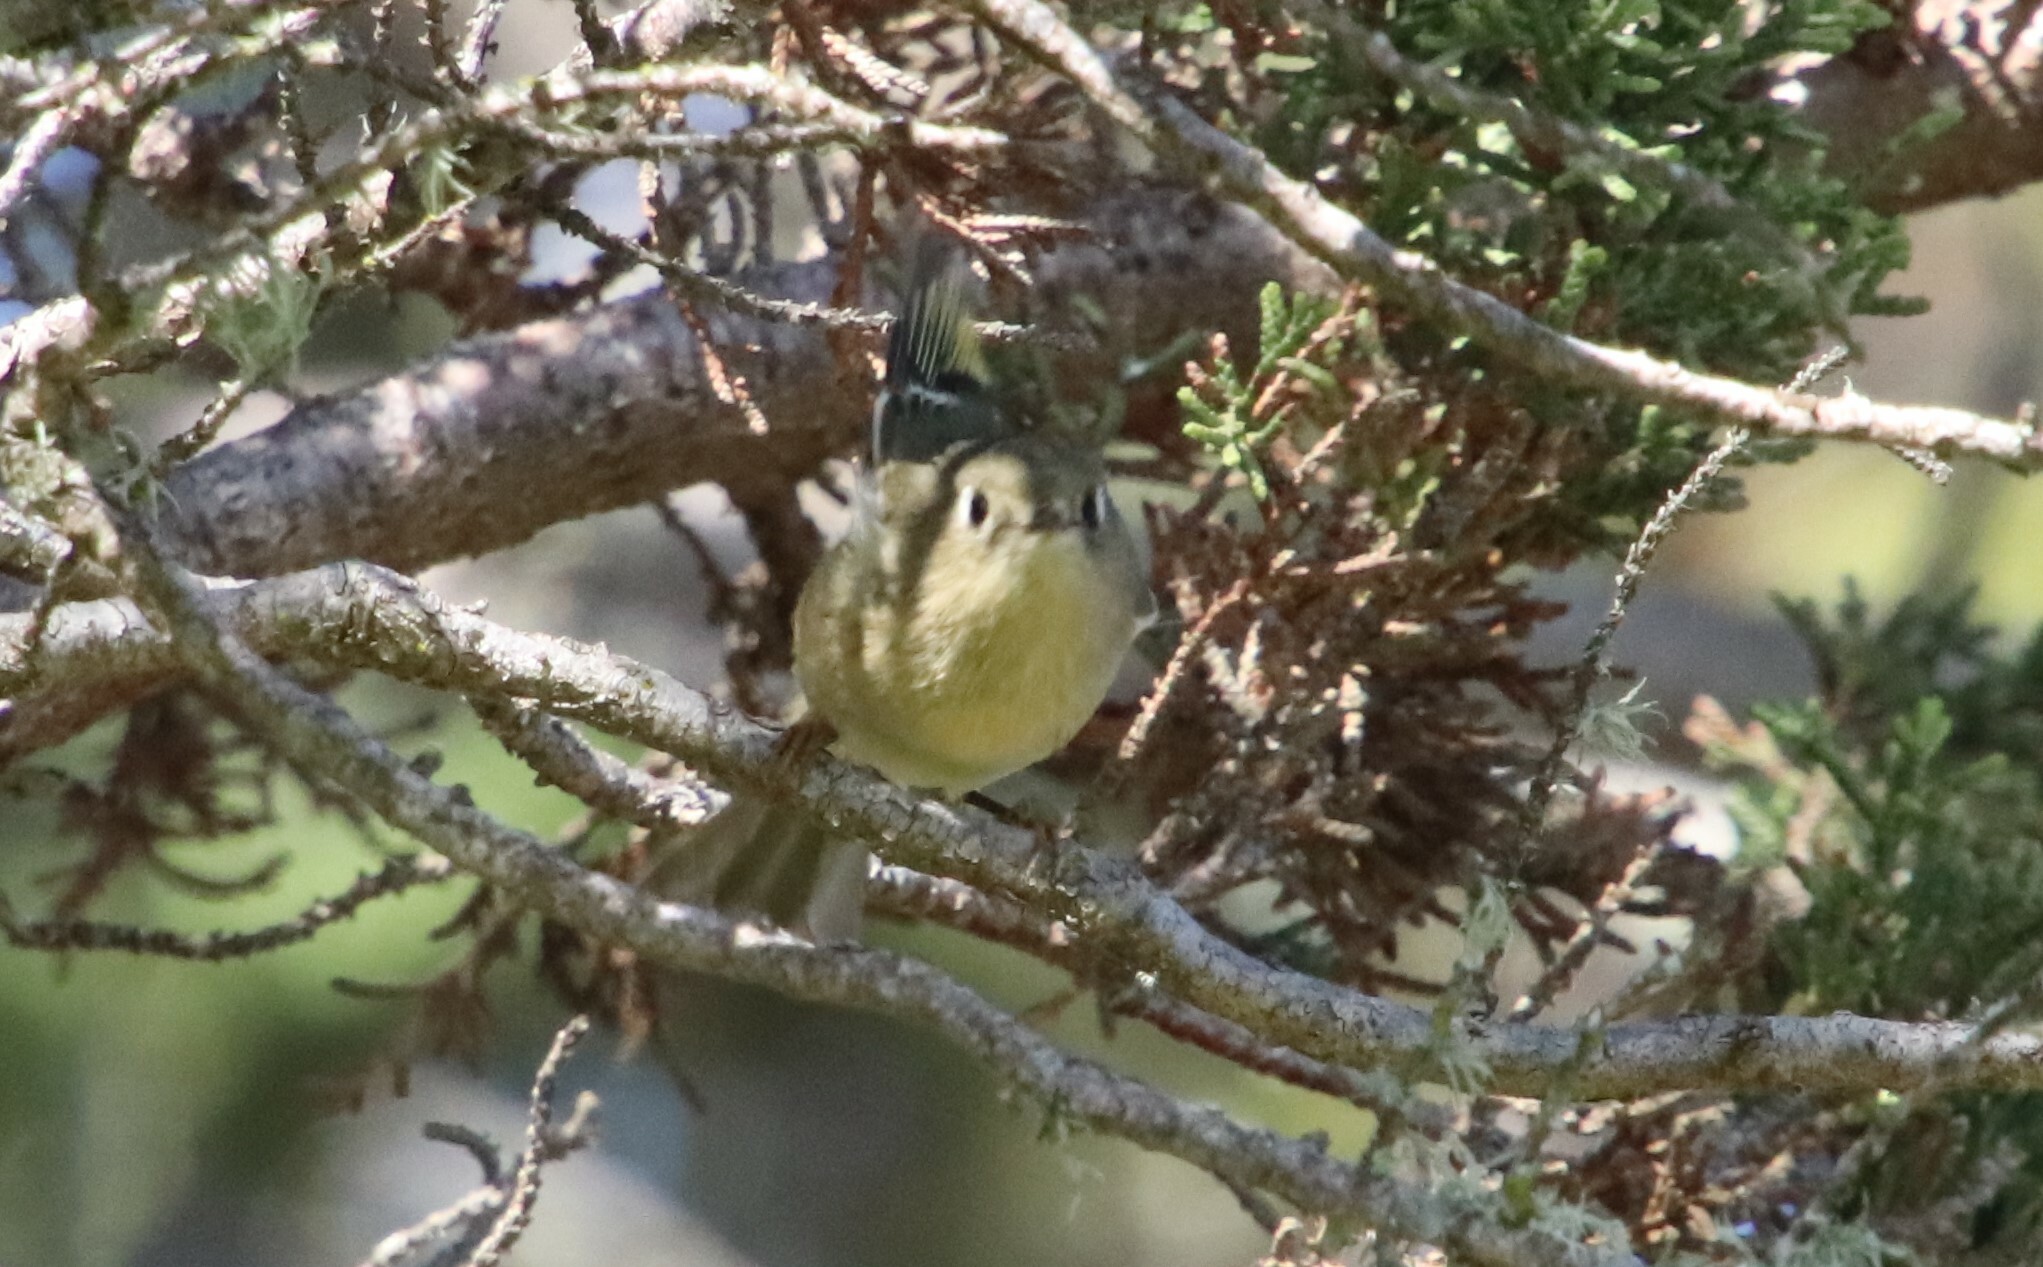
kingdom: Animalia
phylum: Chordata
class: Aves
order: Passeriformes
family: Regulidae
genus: Regulus
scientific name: Regulus calendula
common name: Ruby-crowned kinglet
